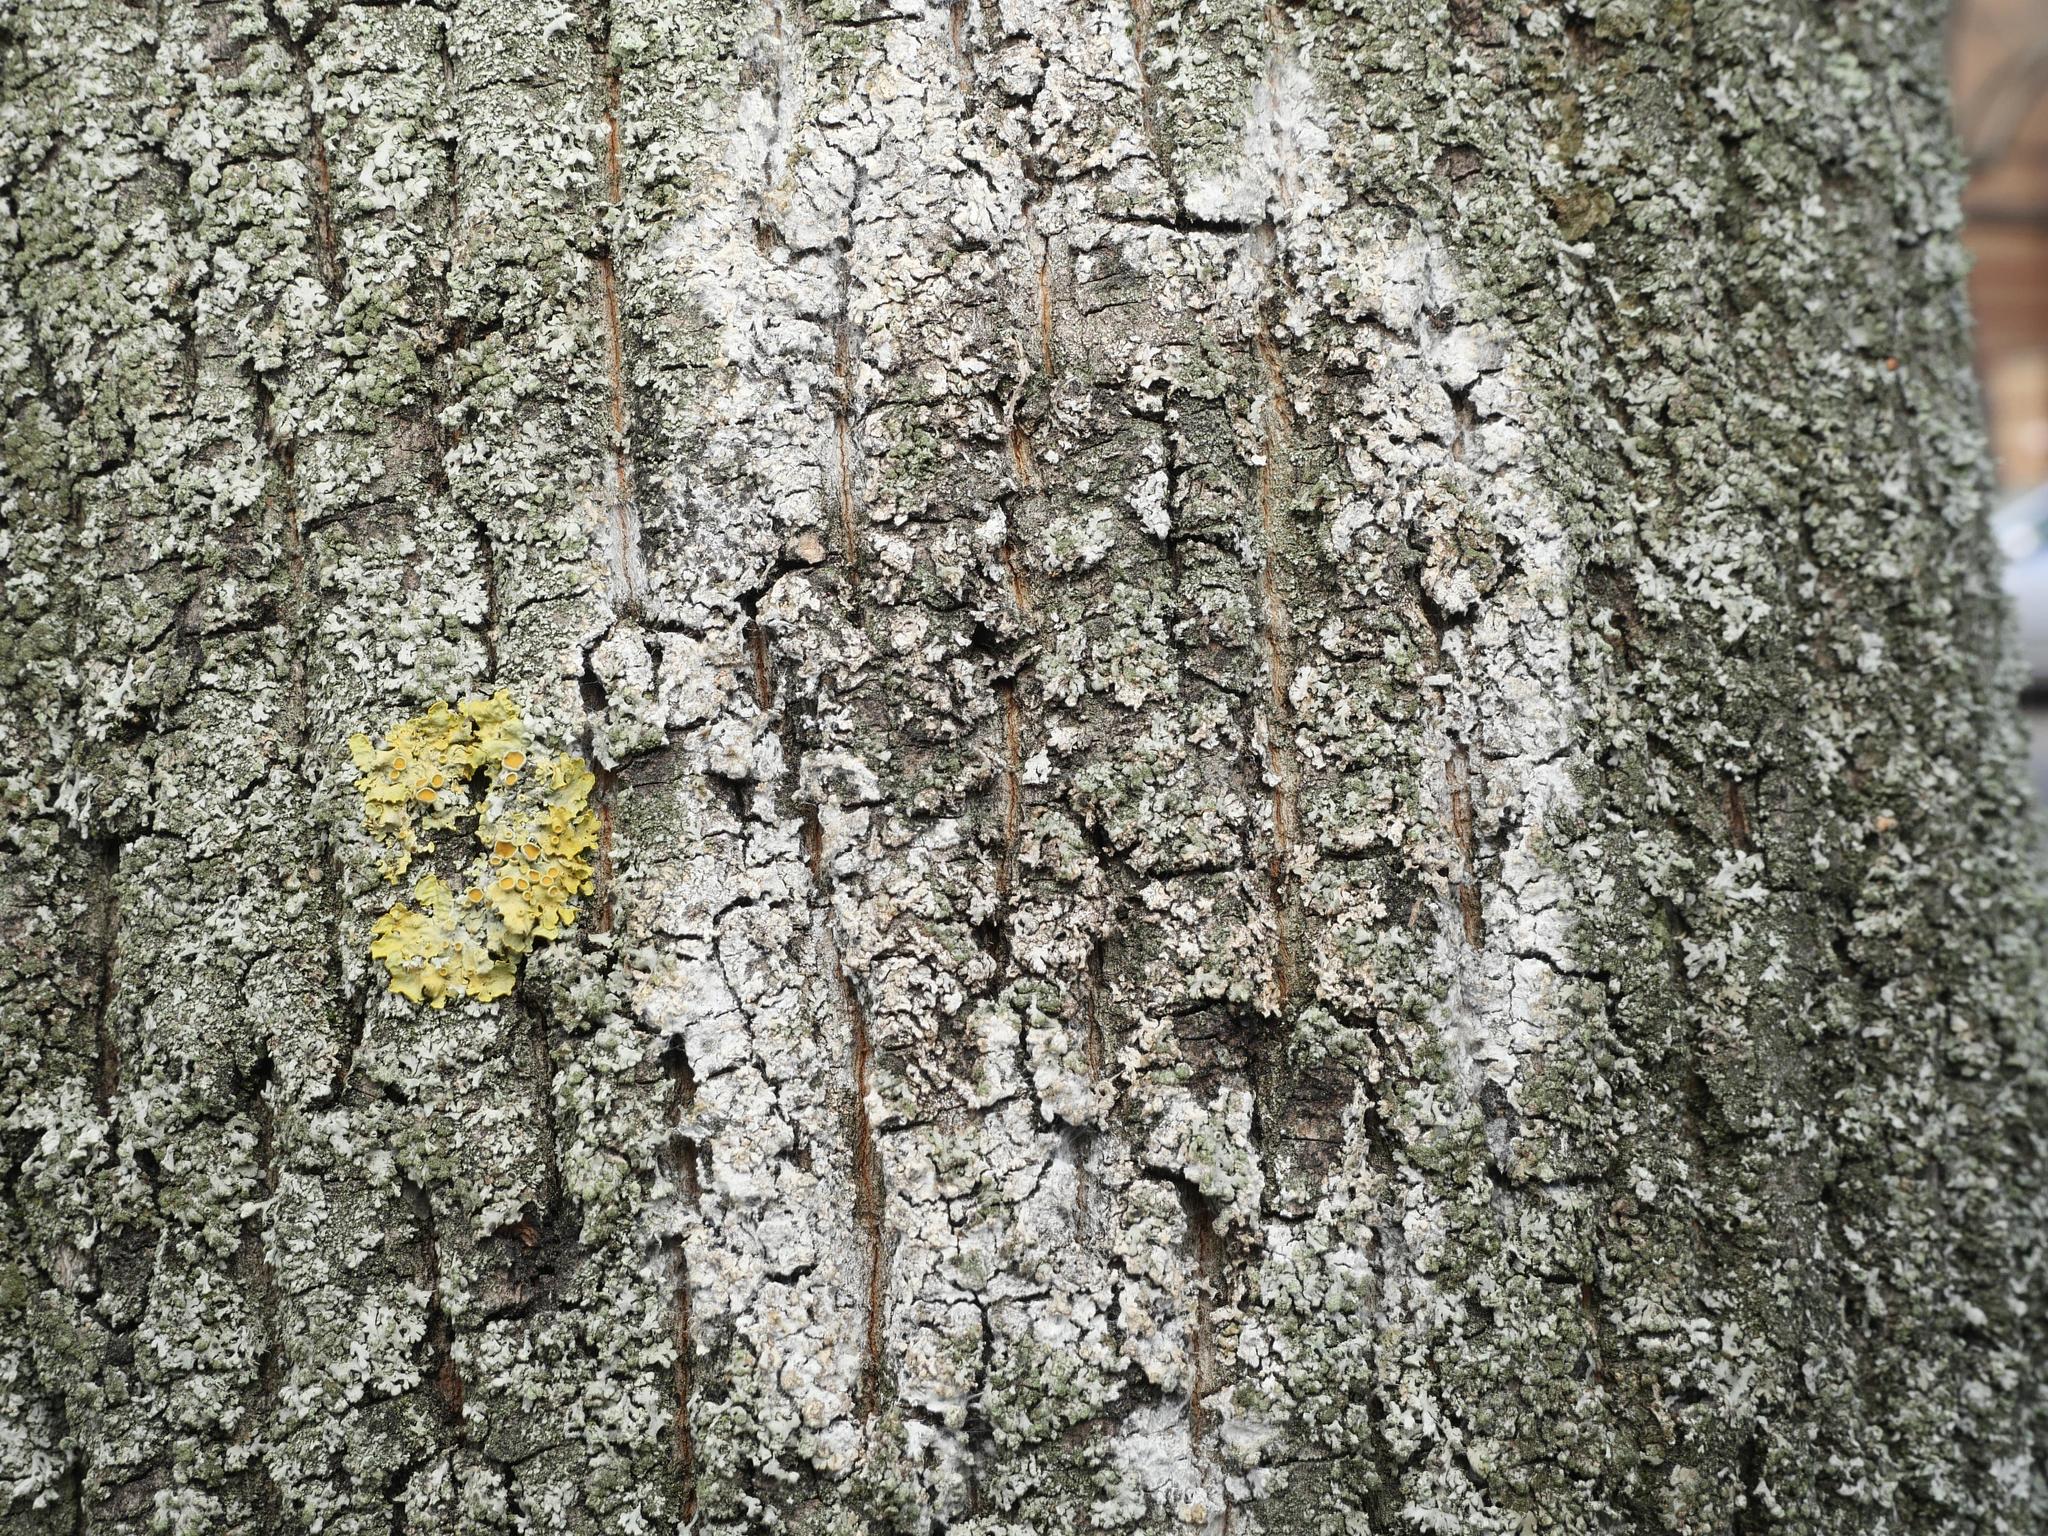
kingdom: Fungi
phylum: Basidiomycota
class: Agaricomycetes
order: Atheliales
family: Atheliaceae
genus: Athelia
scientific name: Athelia arachnoidea
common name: Candelabra duster
